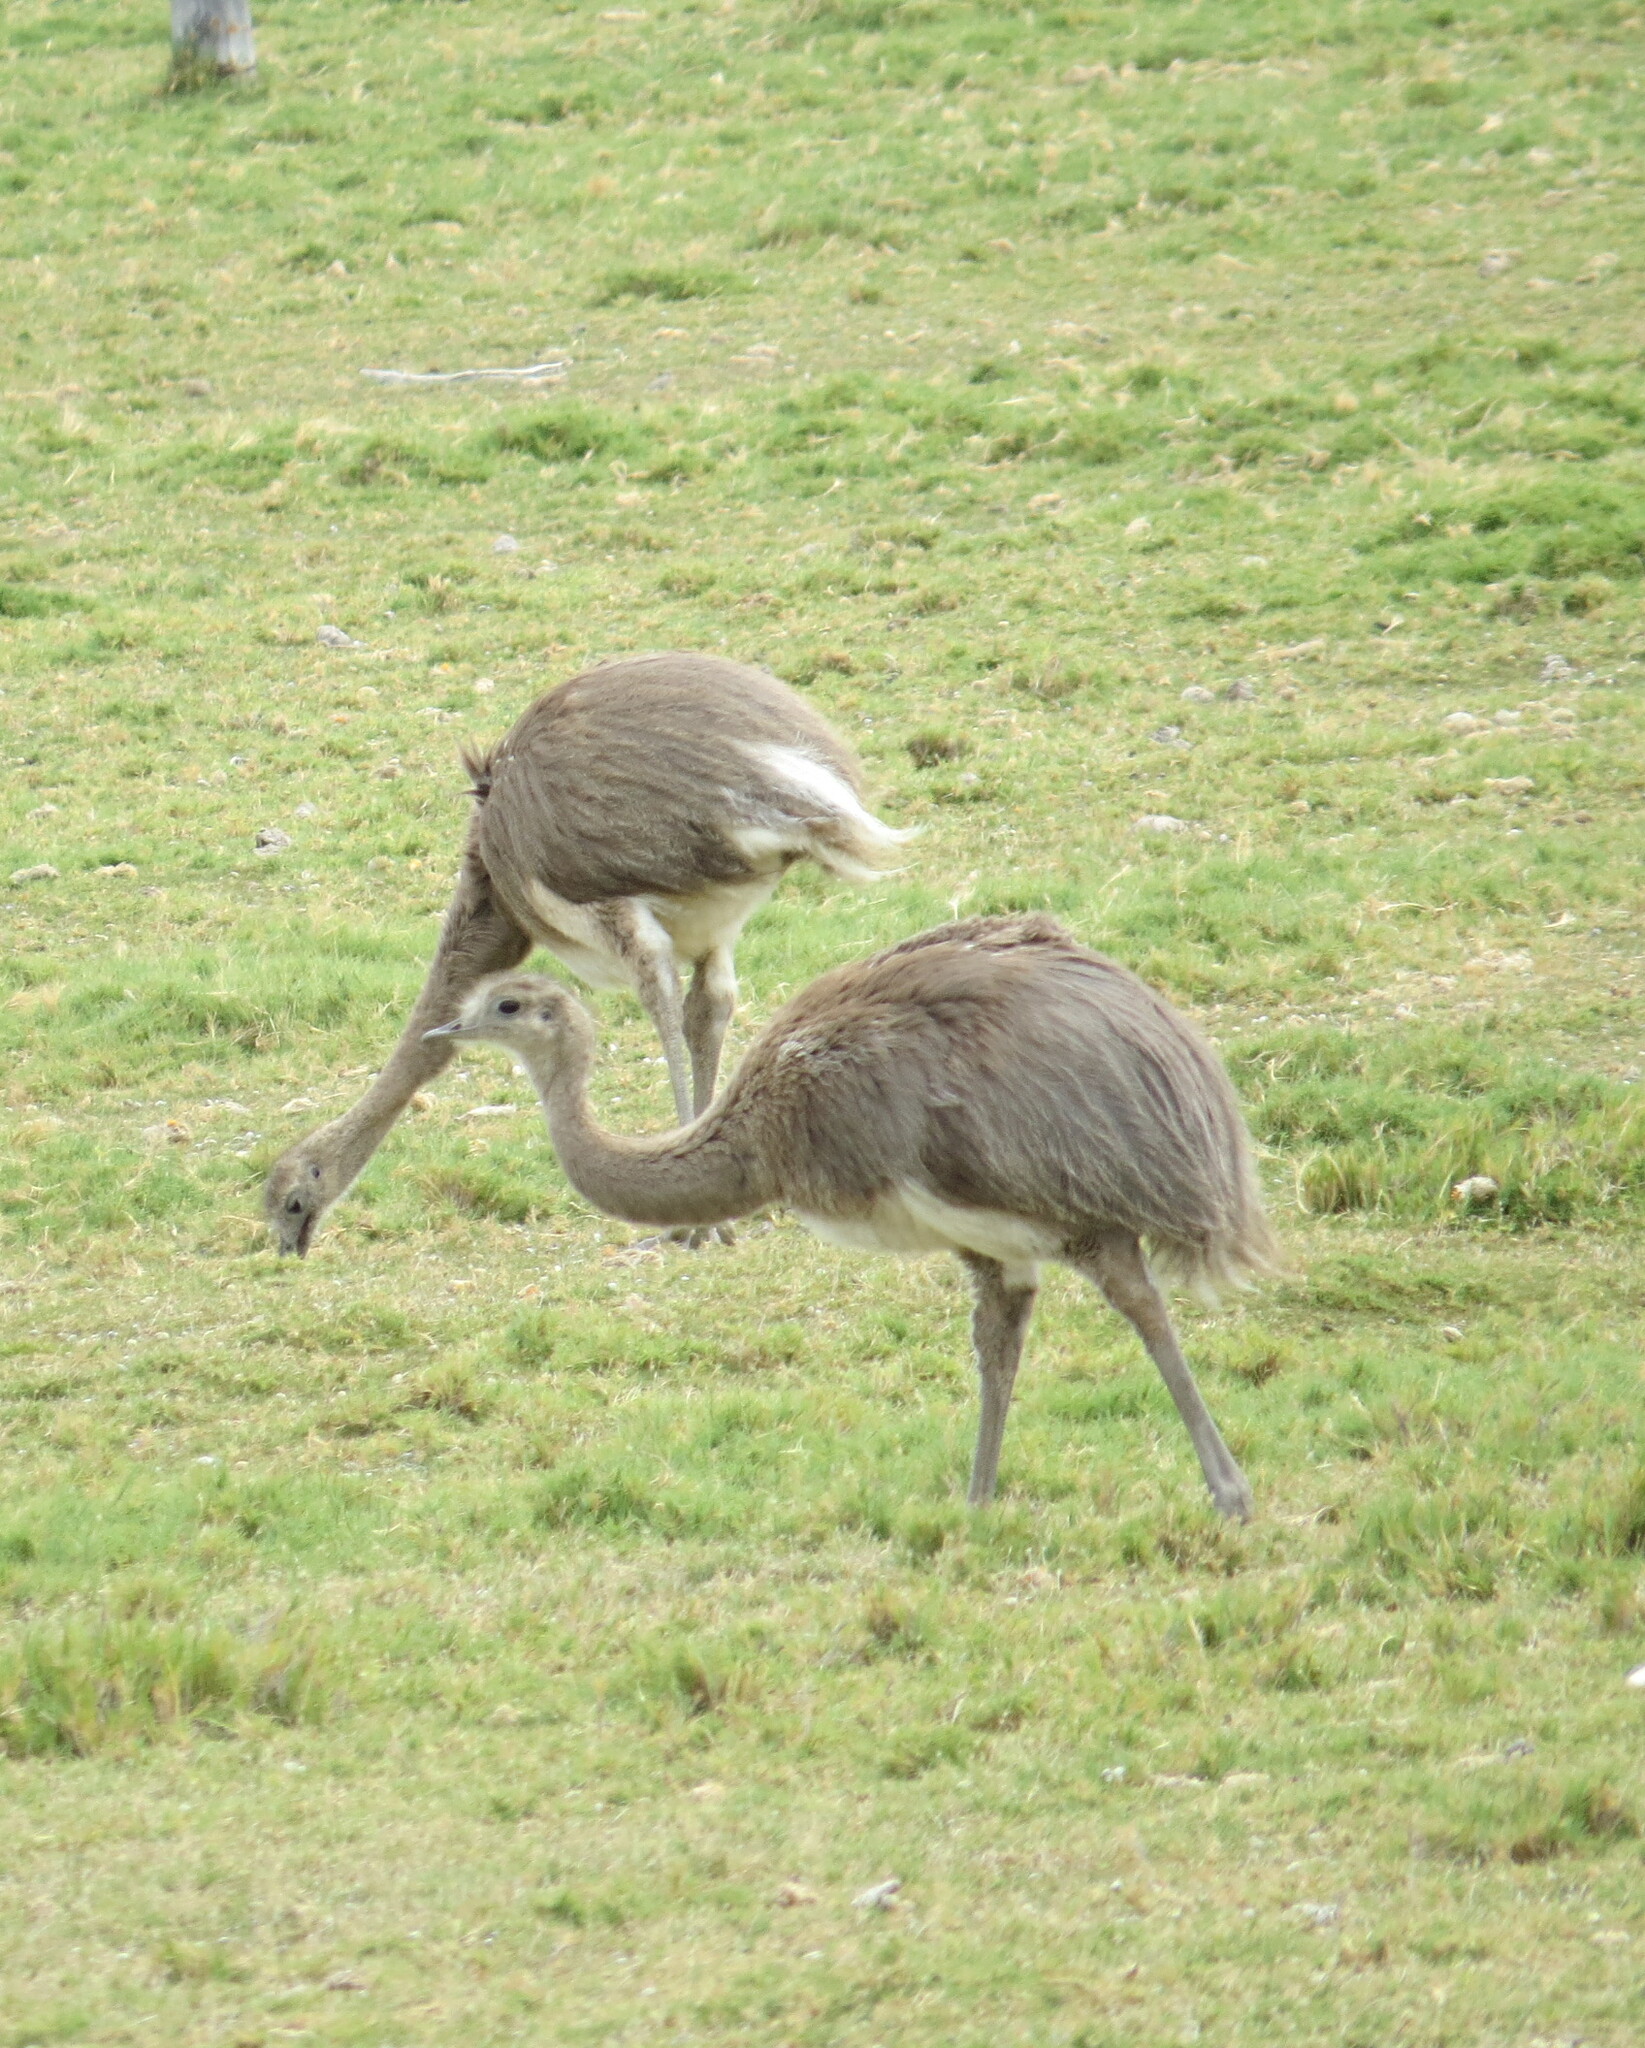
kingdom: Animalia
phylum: Chordata
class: Aves
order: Rheiformes
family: Rheidae
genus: Rhea
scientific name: Rhea pennata
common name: Lesser rhea
